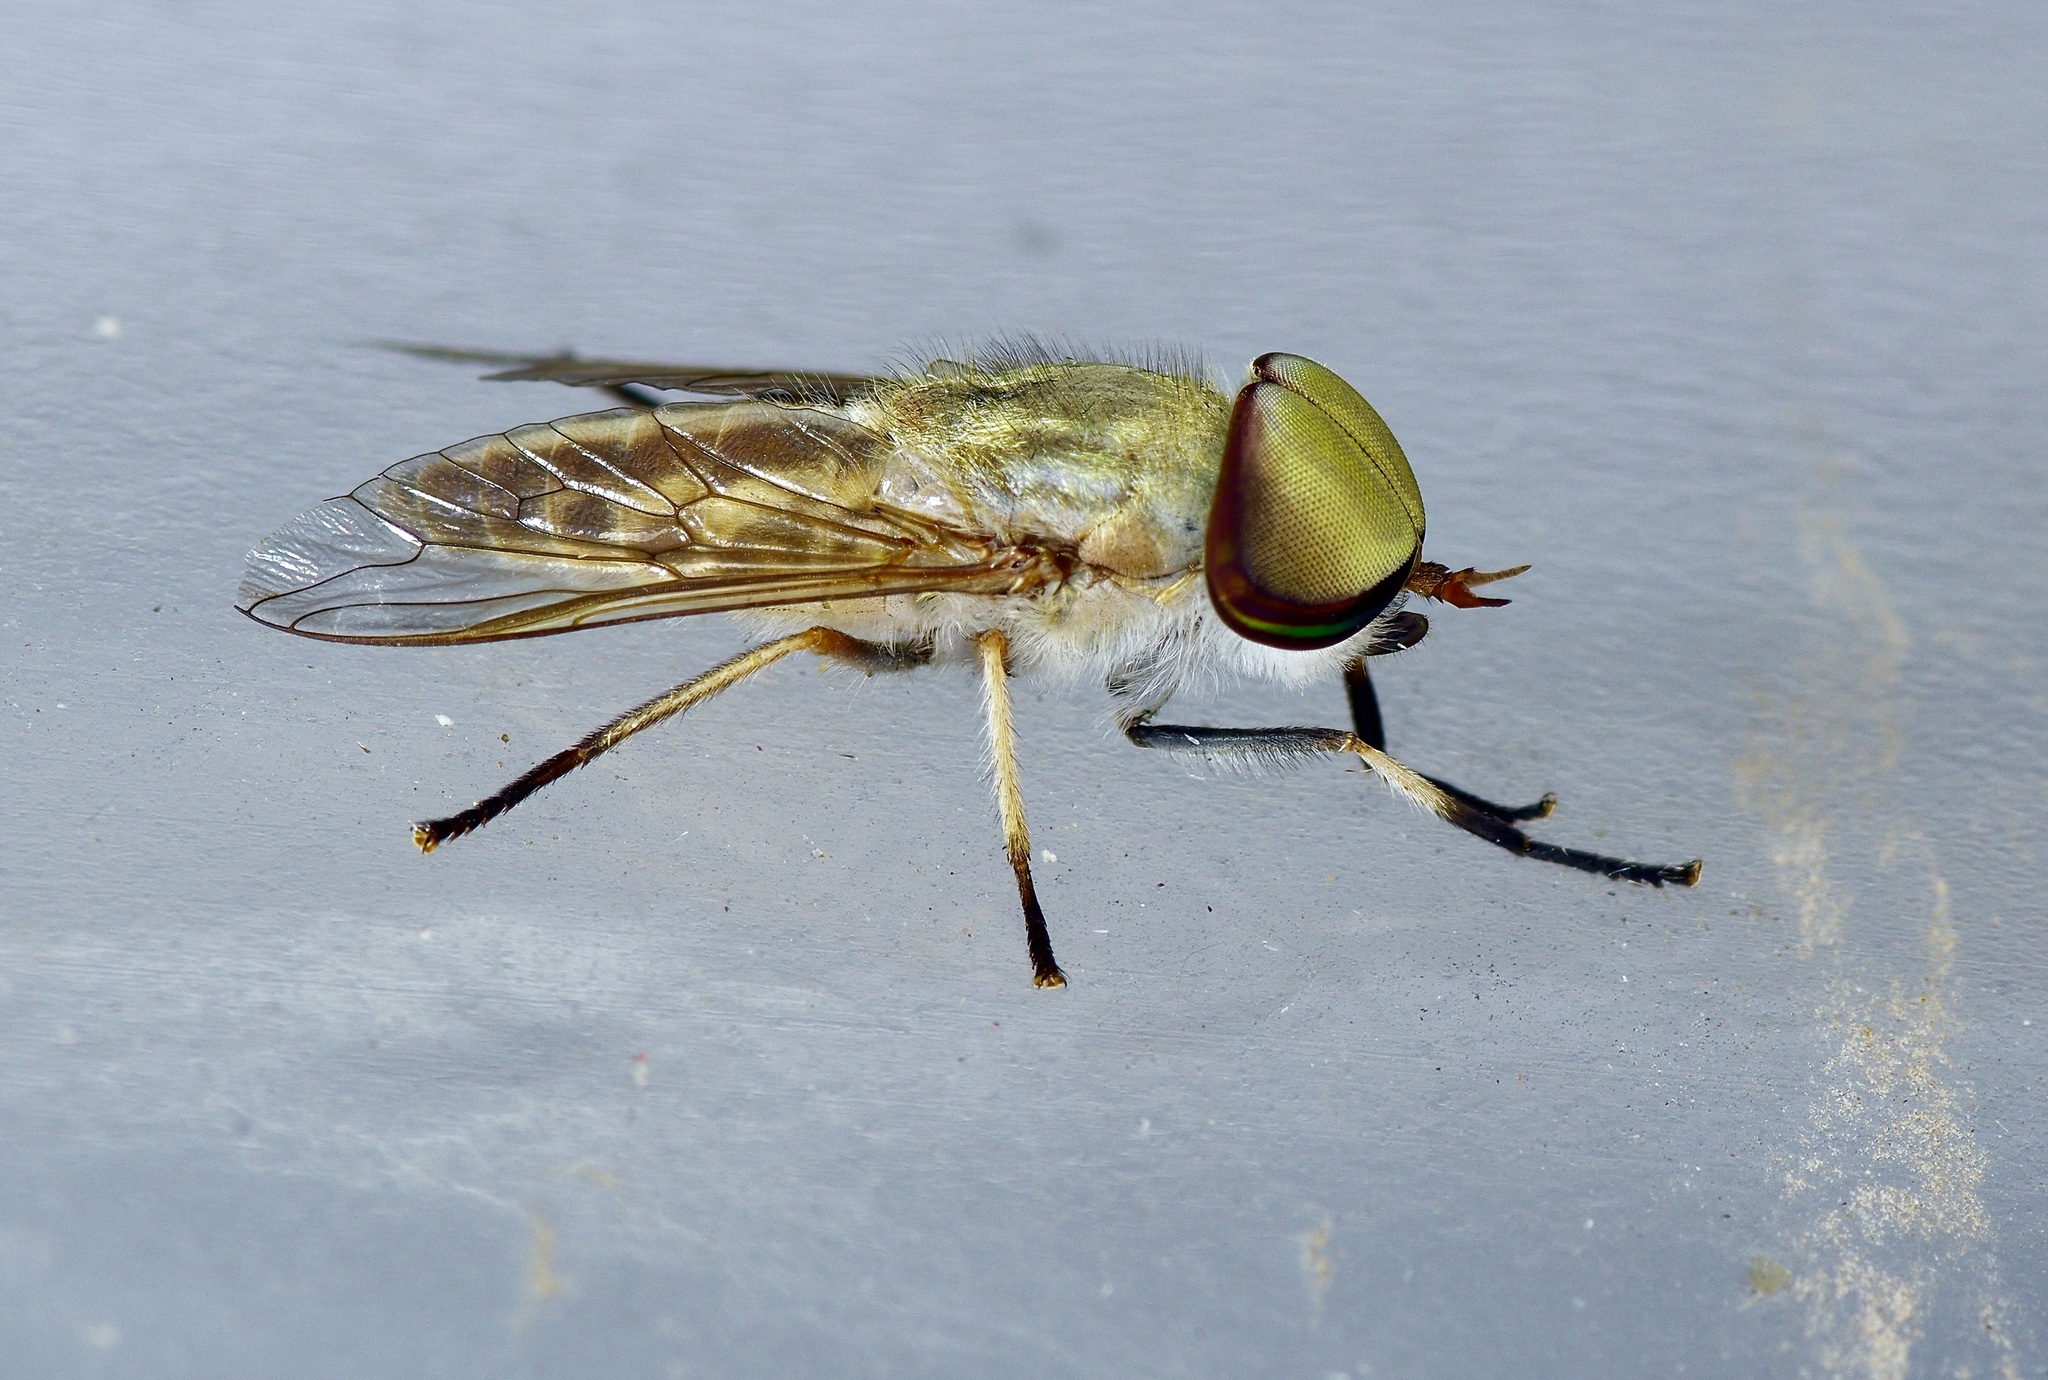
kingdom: Animalia
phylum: Arthropoda
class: Insecta
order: Diptera
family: Tabanidae
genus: Tabanus
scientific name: Tabanus lineola
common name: Striped horse fly
